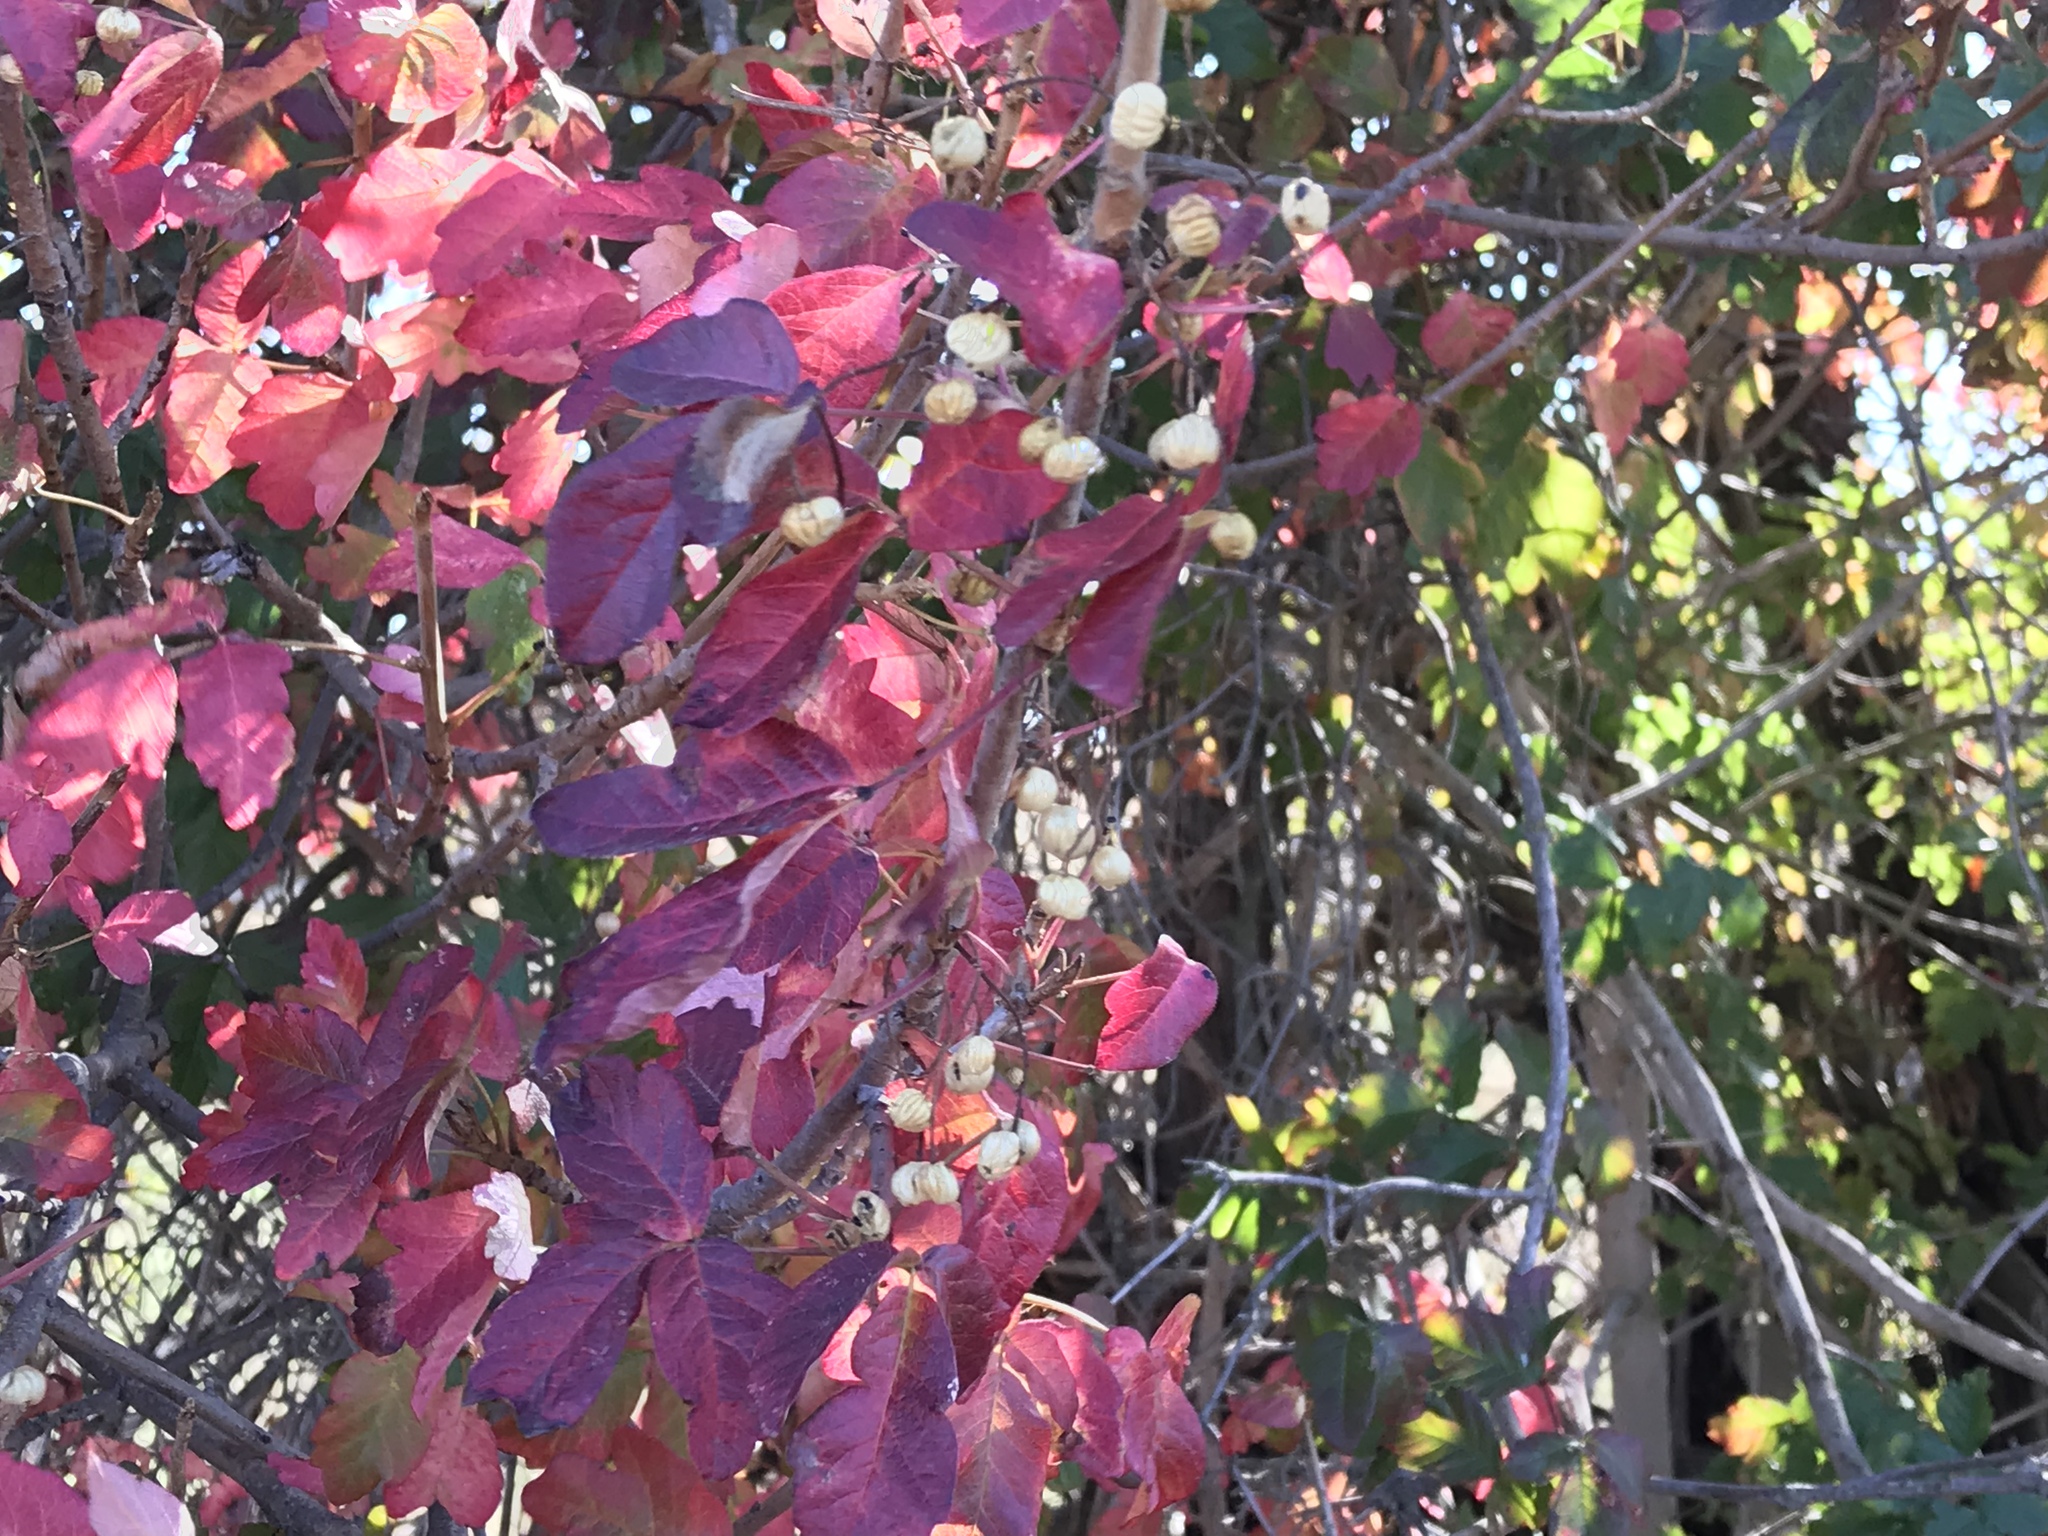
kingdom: Plantae
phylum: Tracheophyta
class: Magnoliopsida
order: Sapindales
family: Anacardiaceae
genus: Toxicodendron
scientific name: Toxicodendron diversilobum
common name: Pacific poison-oak
